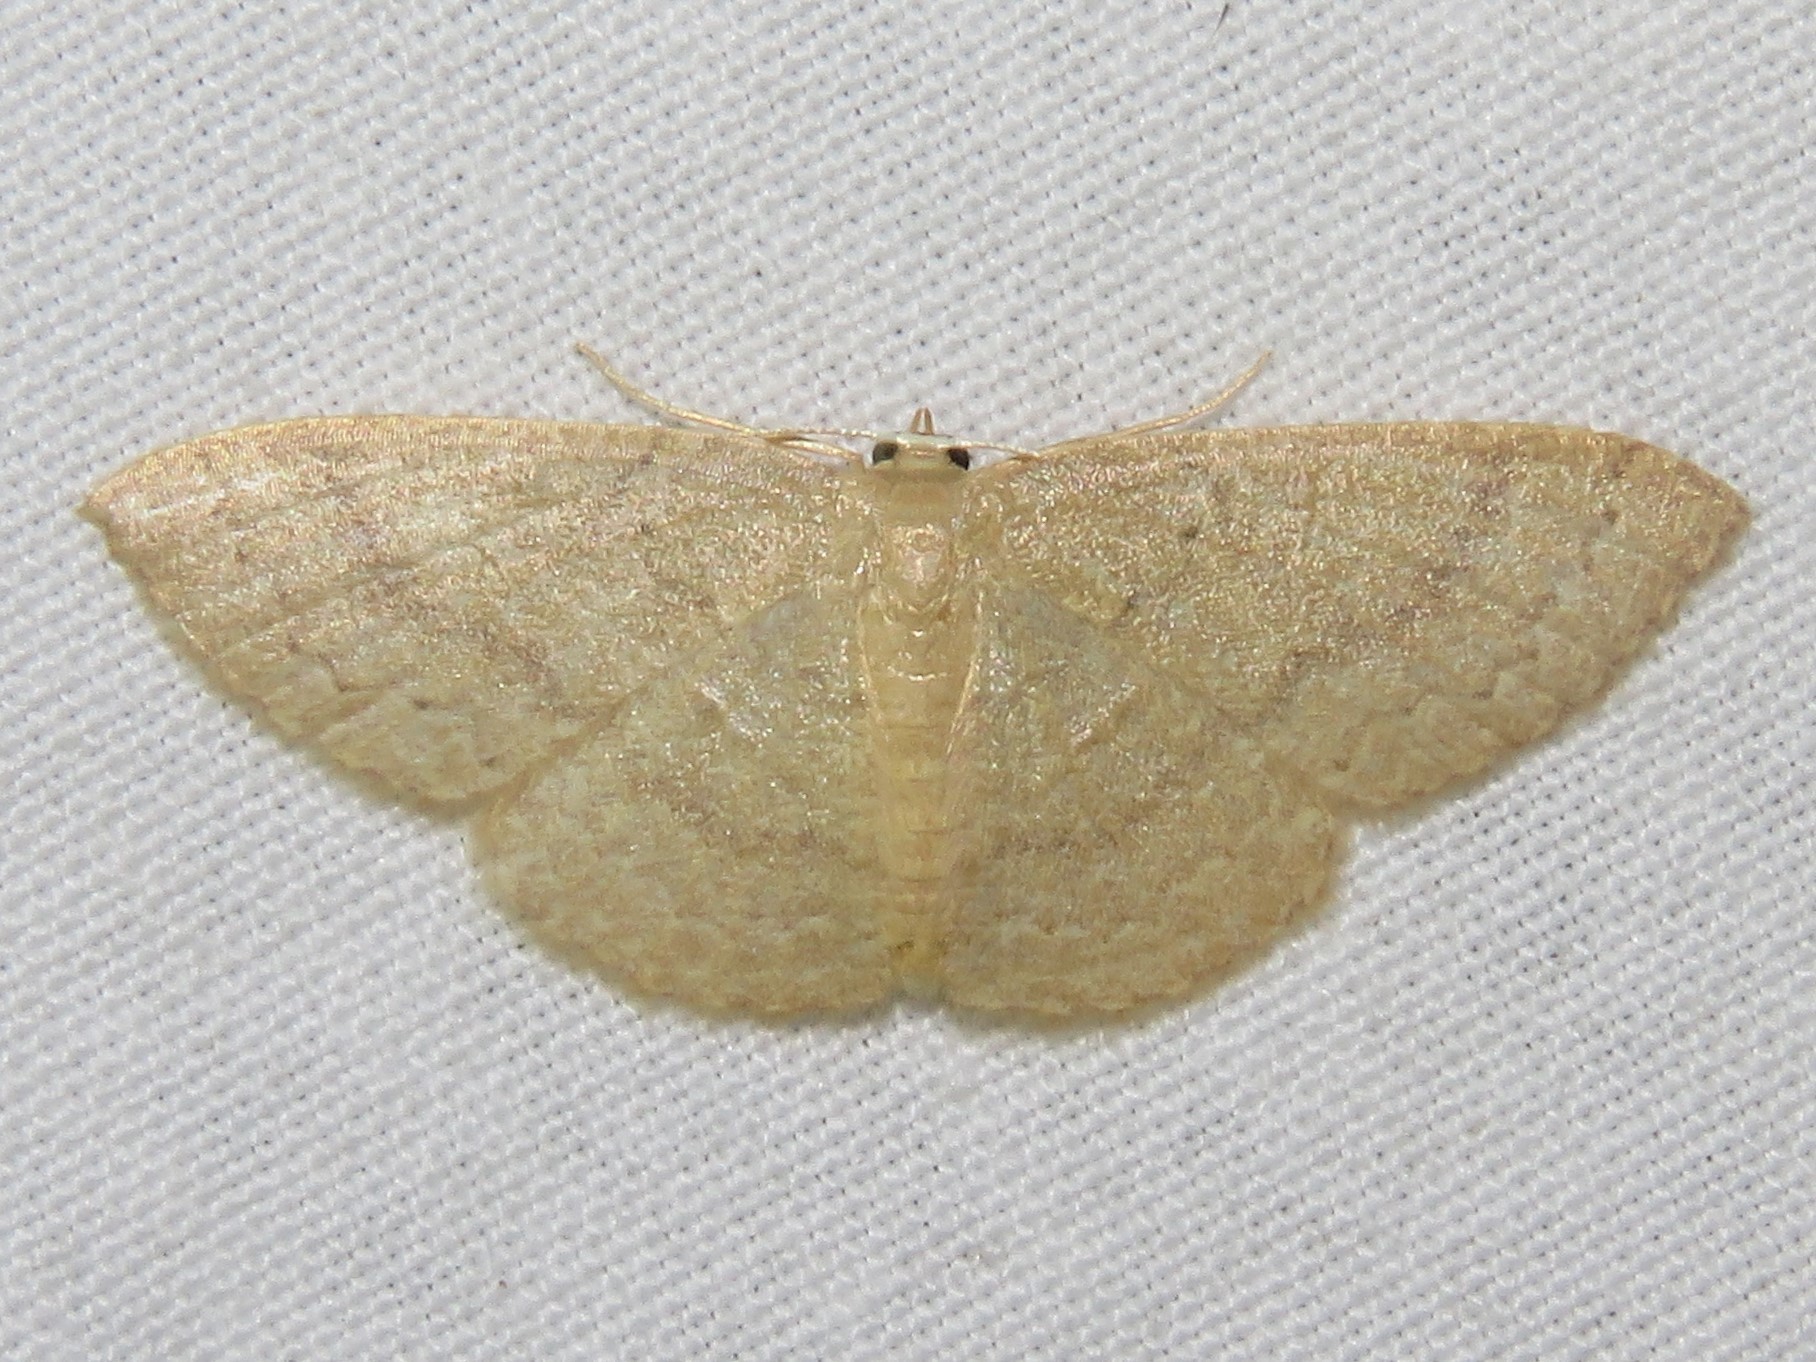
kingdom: Animalia
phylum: Arthropoda
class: Insecta
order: Lepidoptera
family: Geometridae
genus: Pleuroprucha
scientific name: Pleuroprucha insulsaria
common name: Common tan wave
